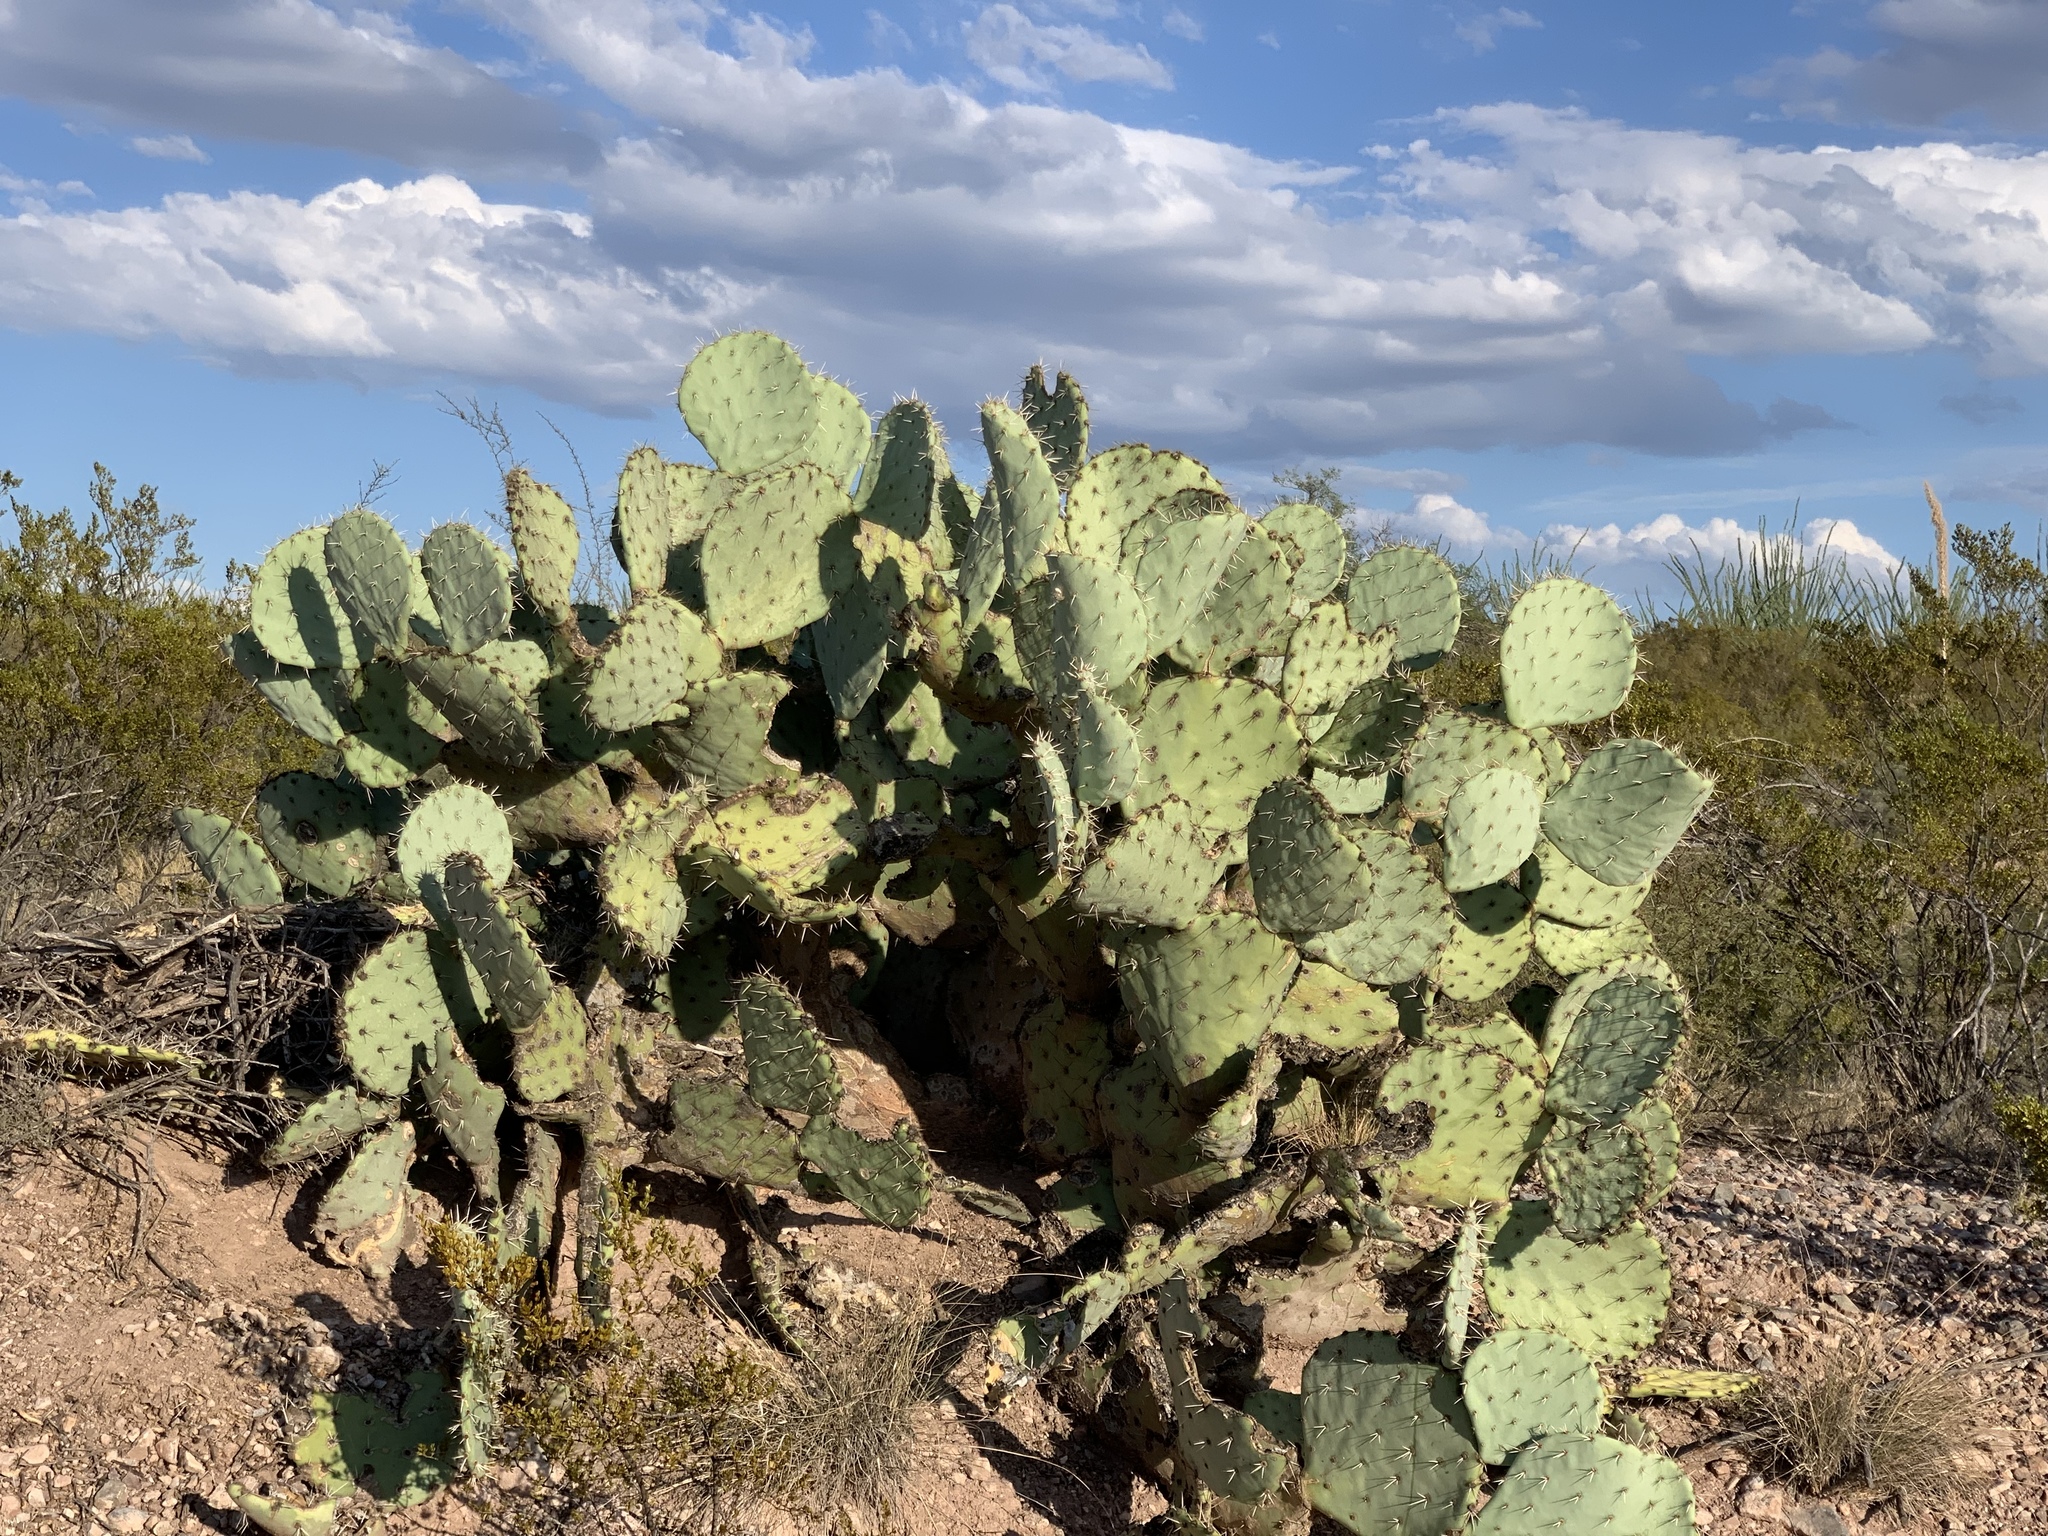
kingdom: Plantae
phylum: Tracheophyta
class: Magnoliopsida
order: Caryophyllales
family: Cactaceae
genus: Opuntia
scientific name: Opuntia engelmannii
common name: Cactus-apple
